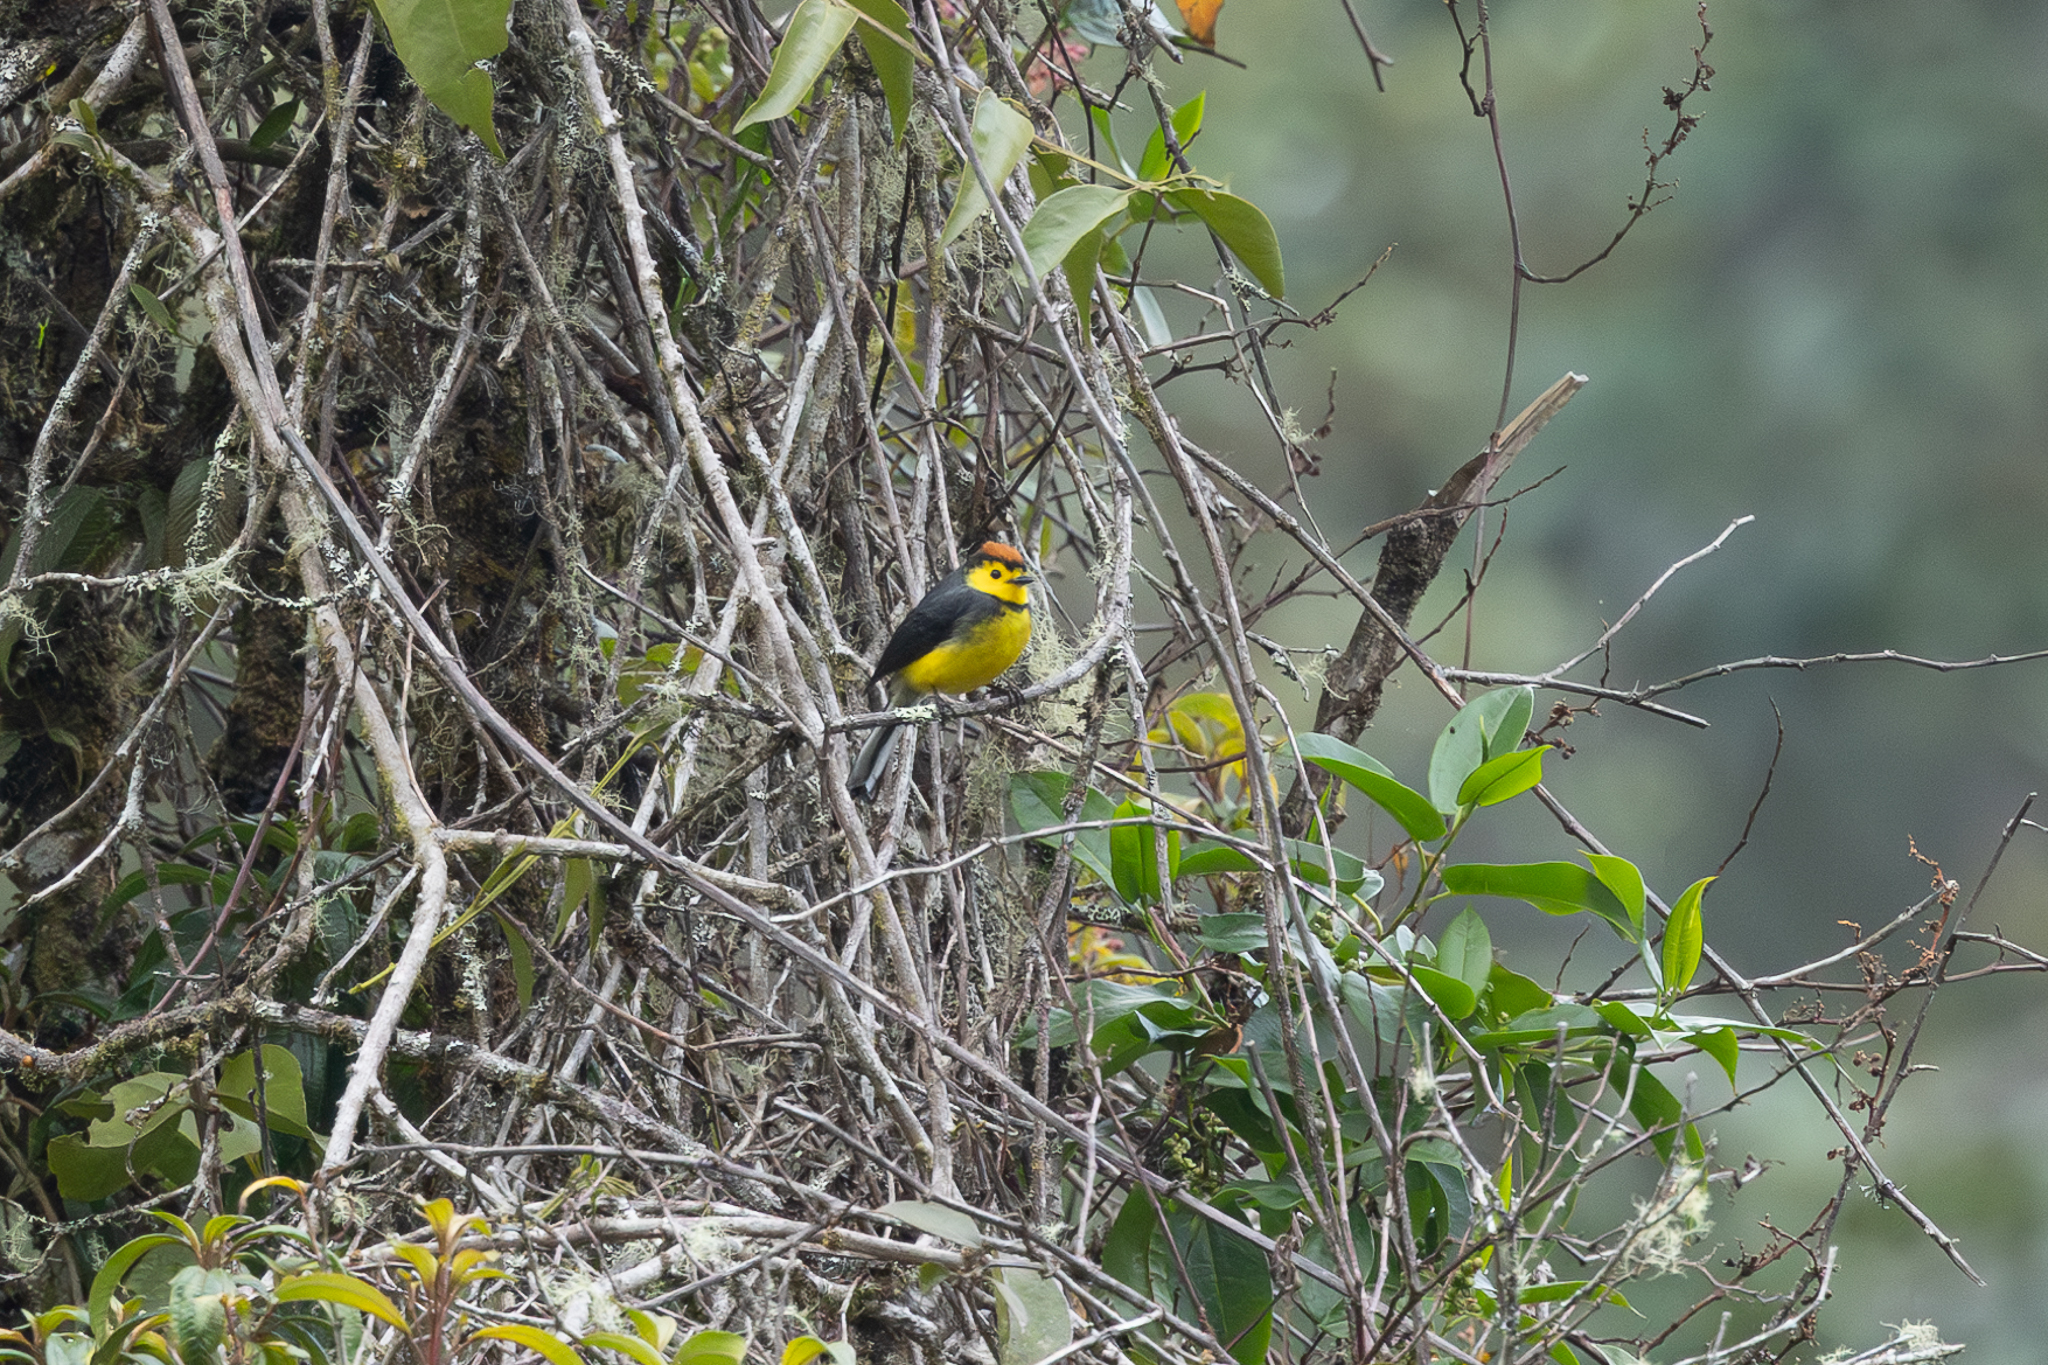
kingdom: Animalia
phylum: Chordata
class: Aves
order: Passeriformes
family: Parulidae
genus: Myioborus
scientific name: Myioborus torquatus
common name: Collared whitestart
